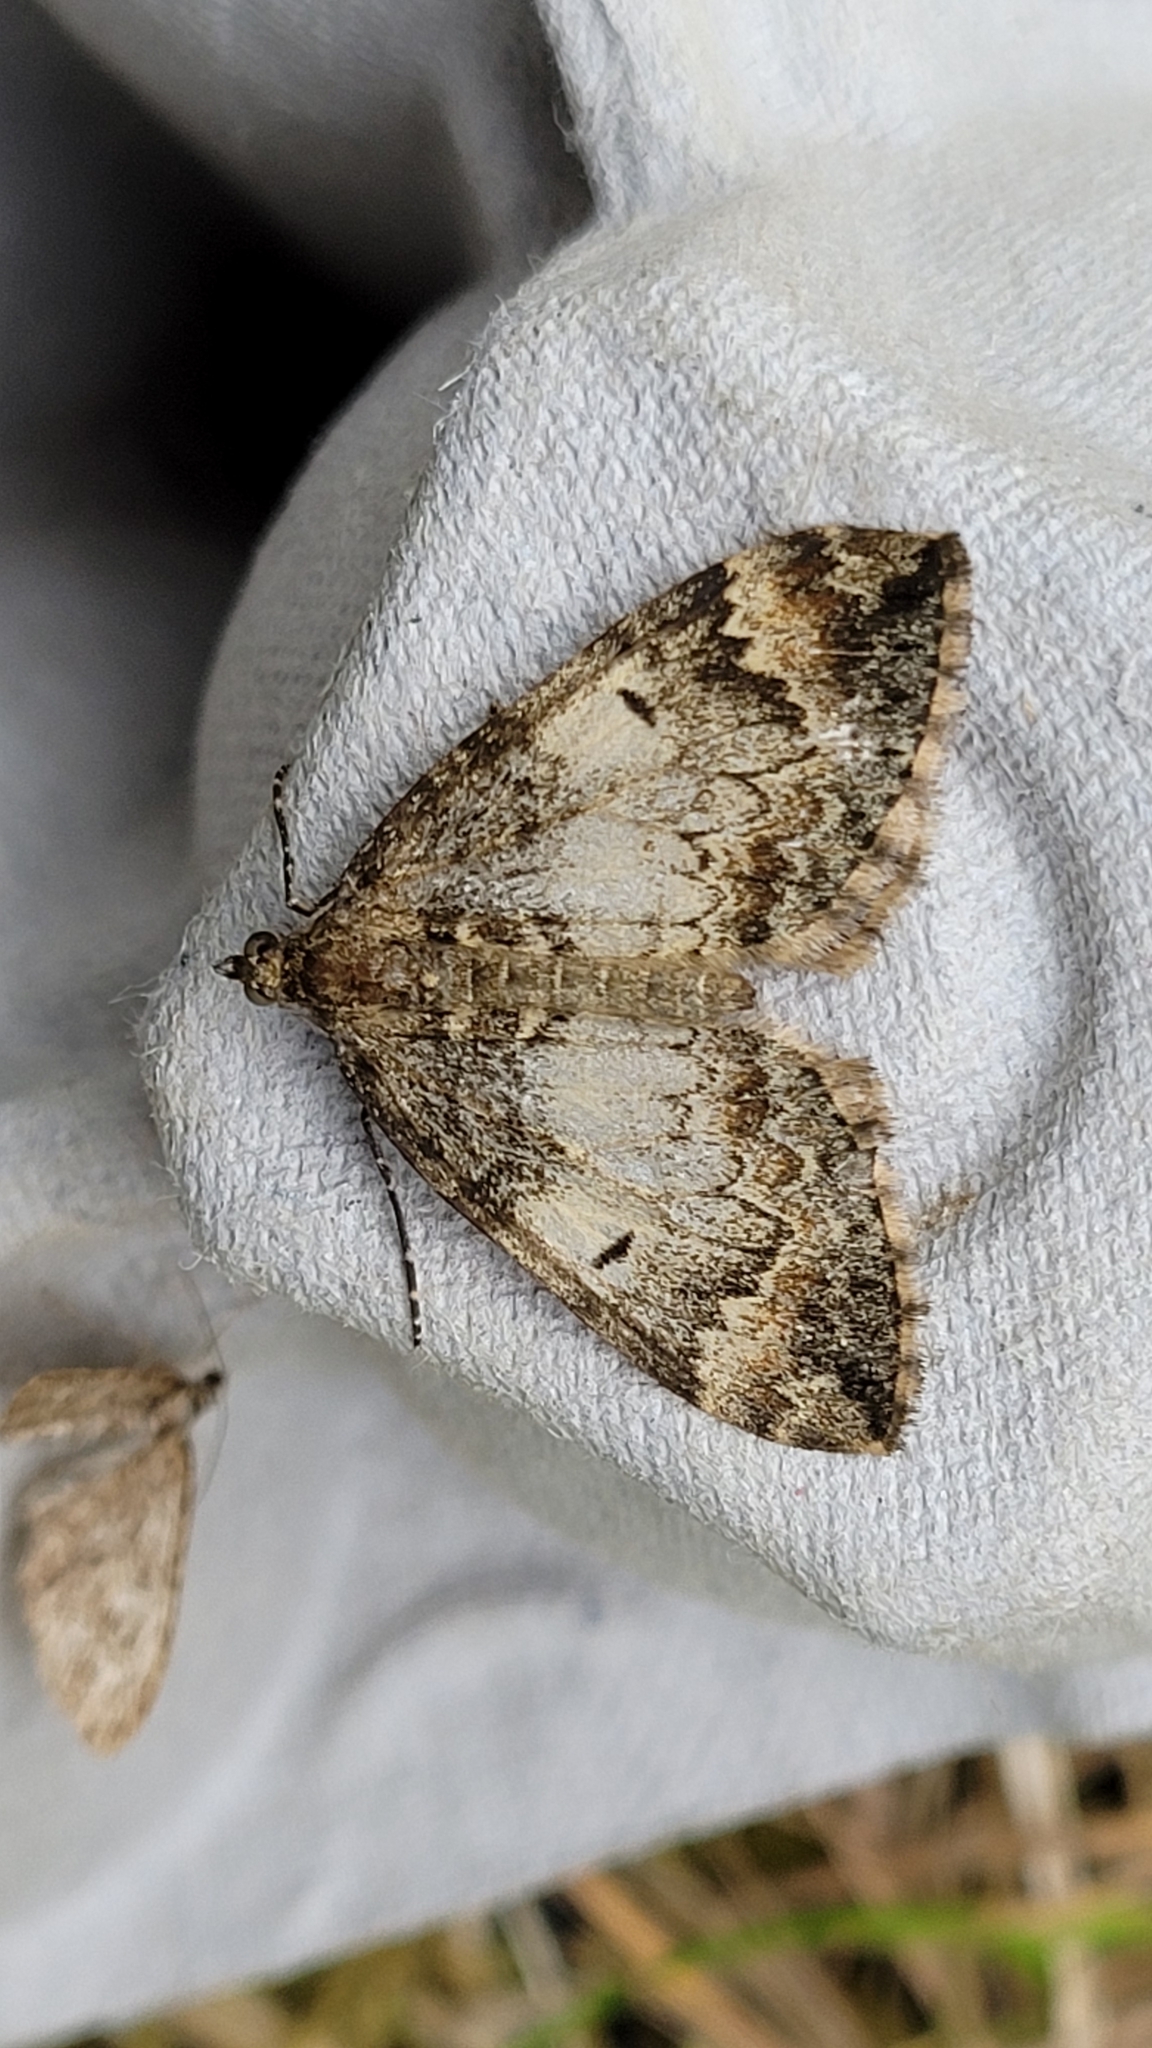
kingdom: Animalia
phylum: Arthropoda
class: Insecta
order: Lepidoptera
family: Geometridae
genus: Dysstroma
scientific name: Dysstroma truncata
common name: Common marbled carpet
